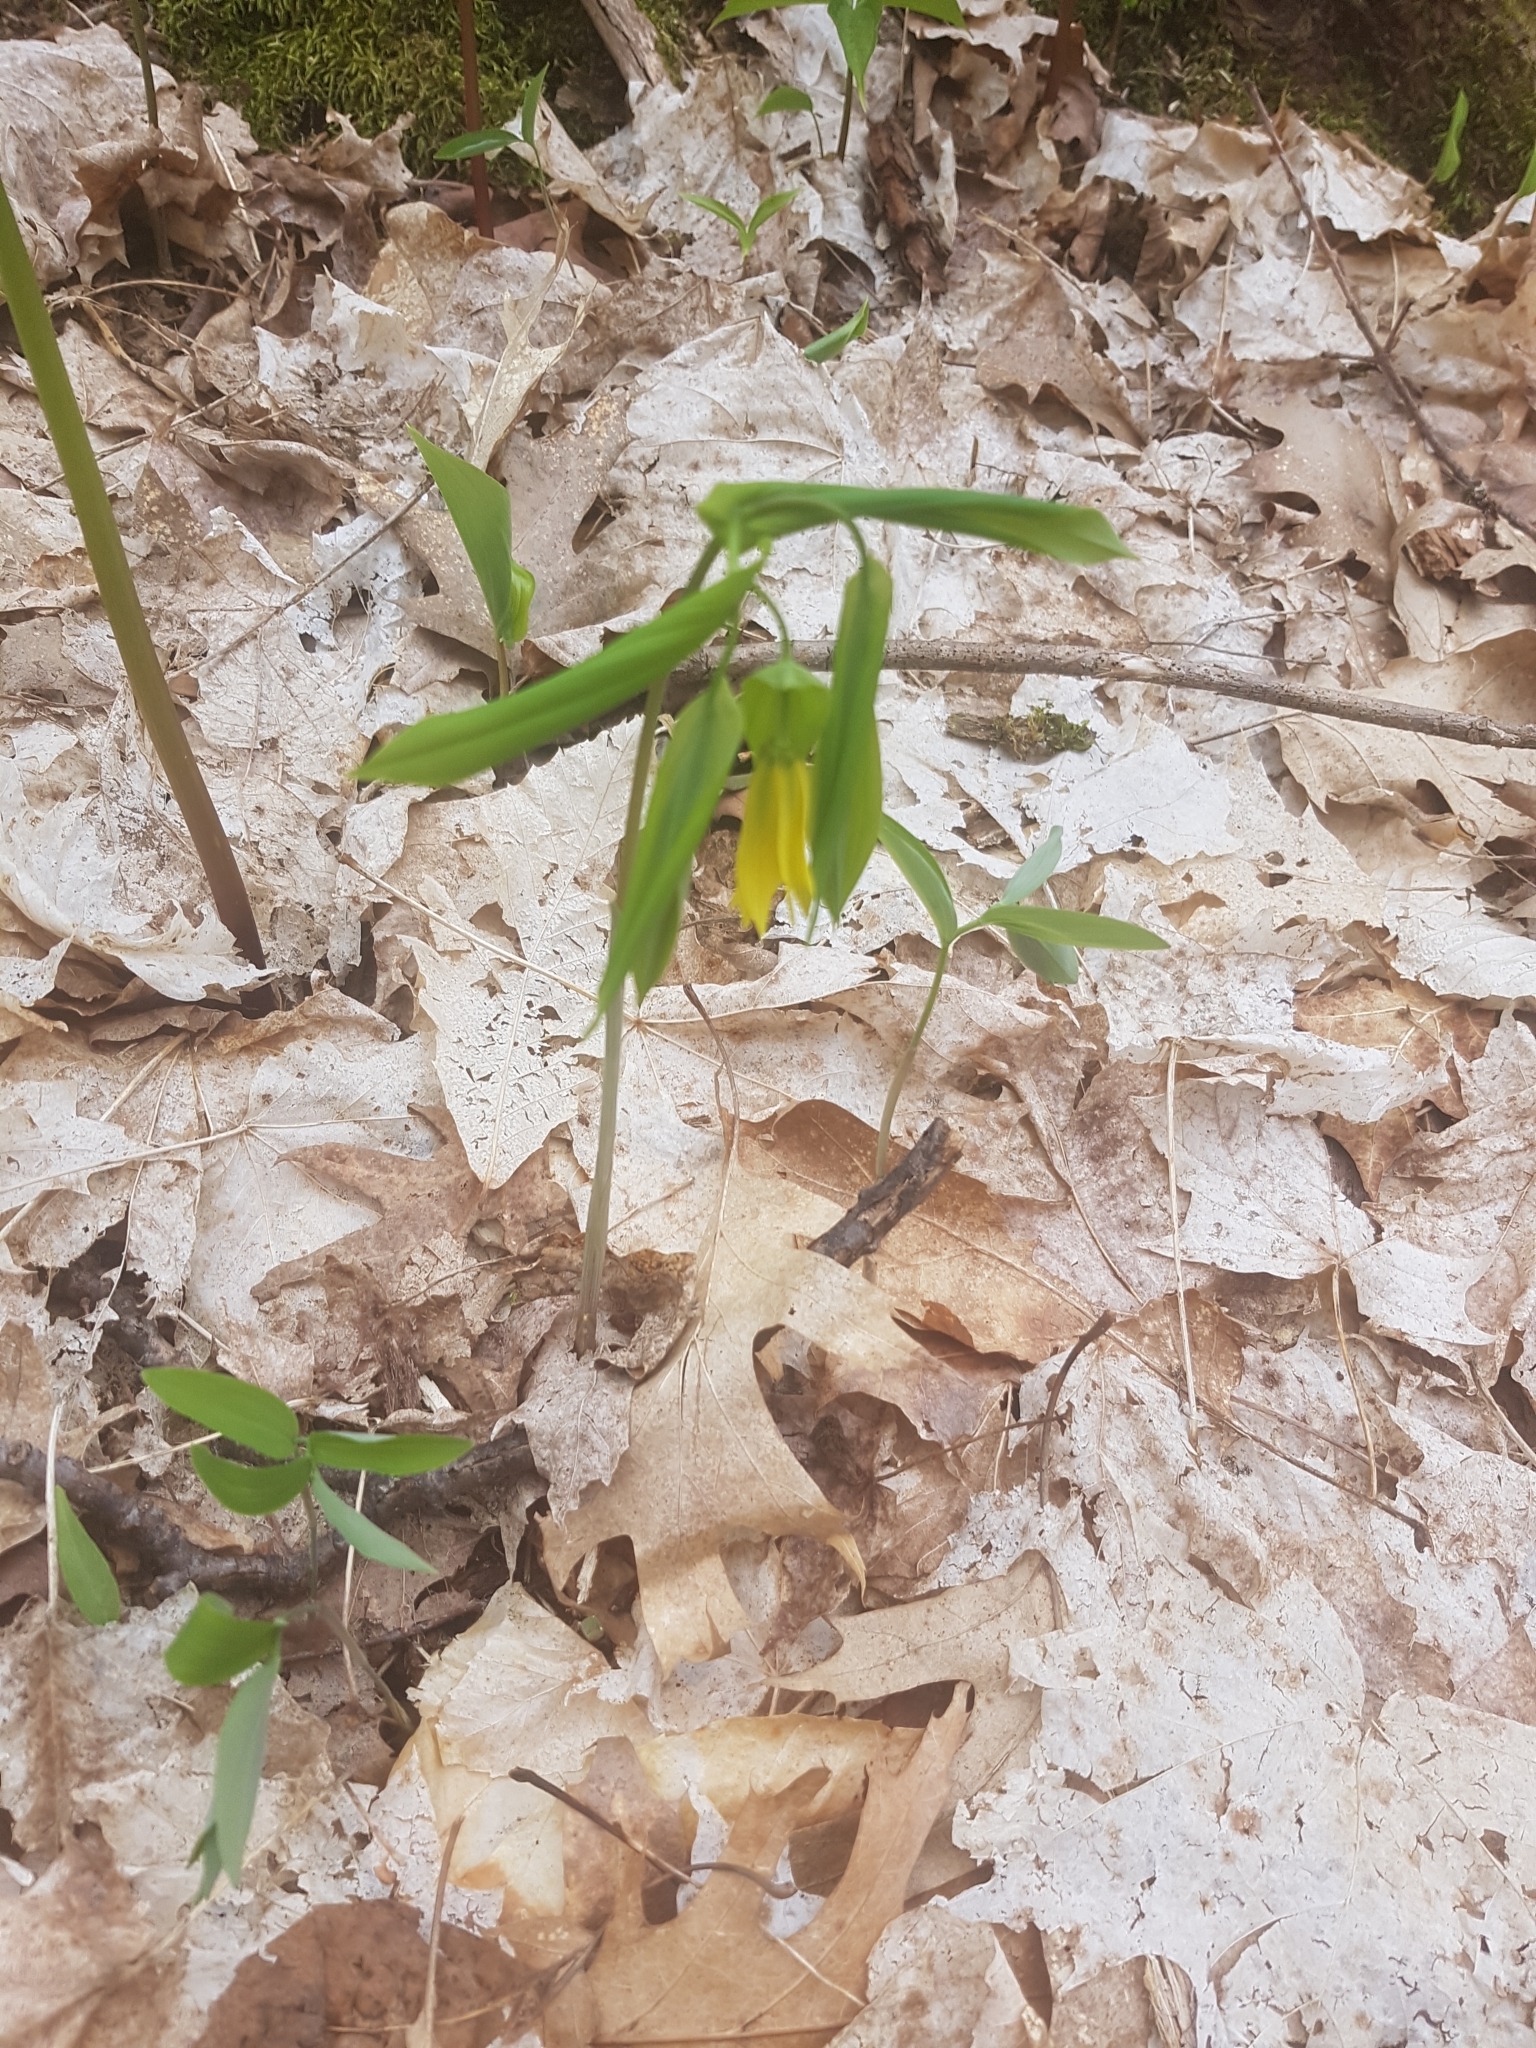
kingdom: Plantae
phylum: Tracheophyta
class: Liliopsida
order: Liliales
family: Colchicaceae
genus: Uvularia
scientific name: Uvularia grandiflora
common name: Bellwort
